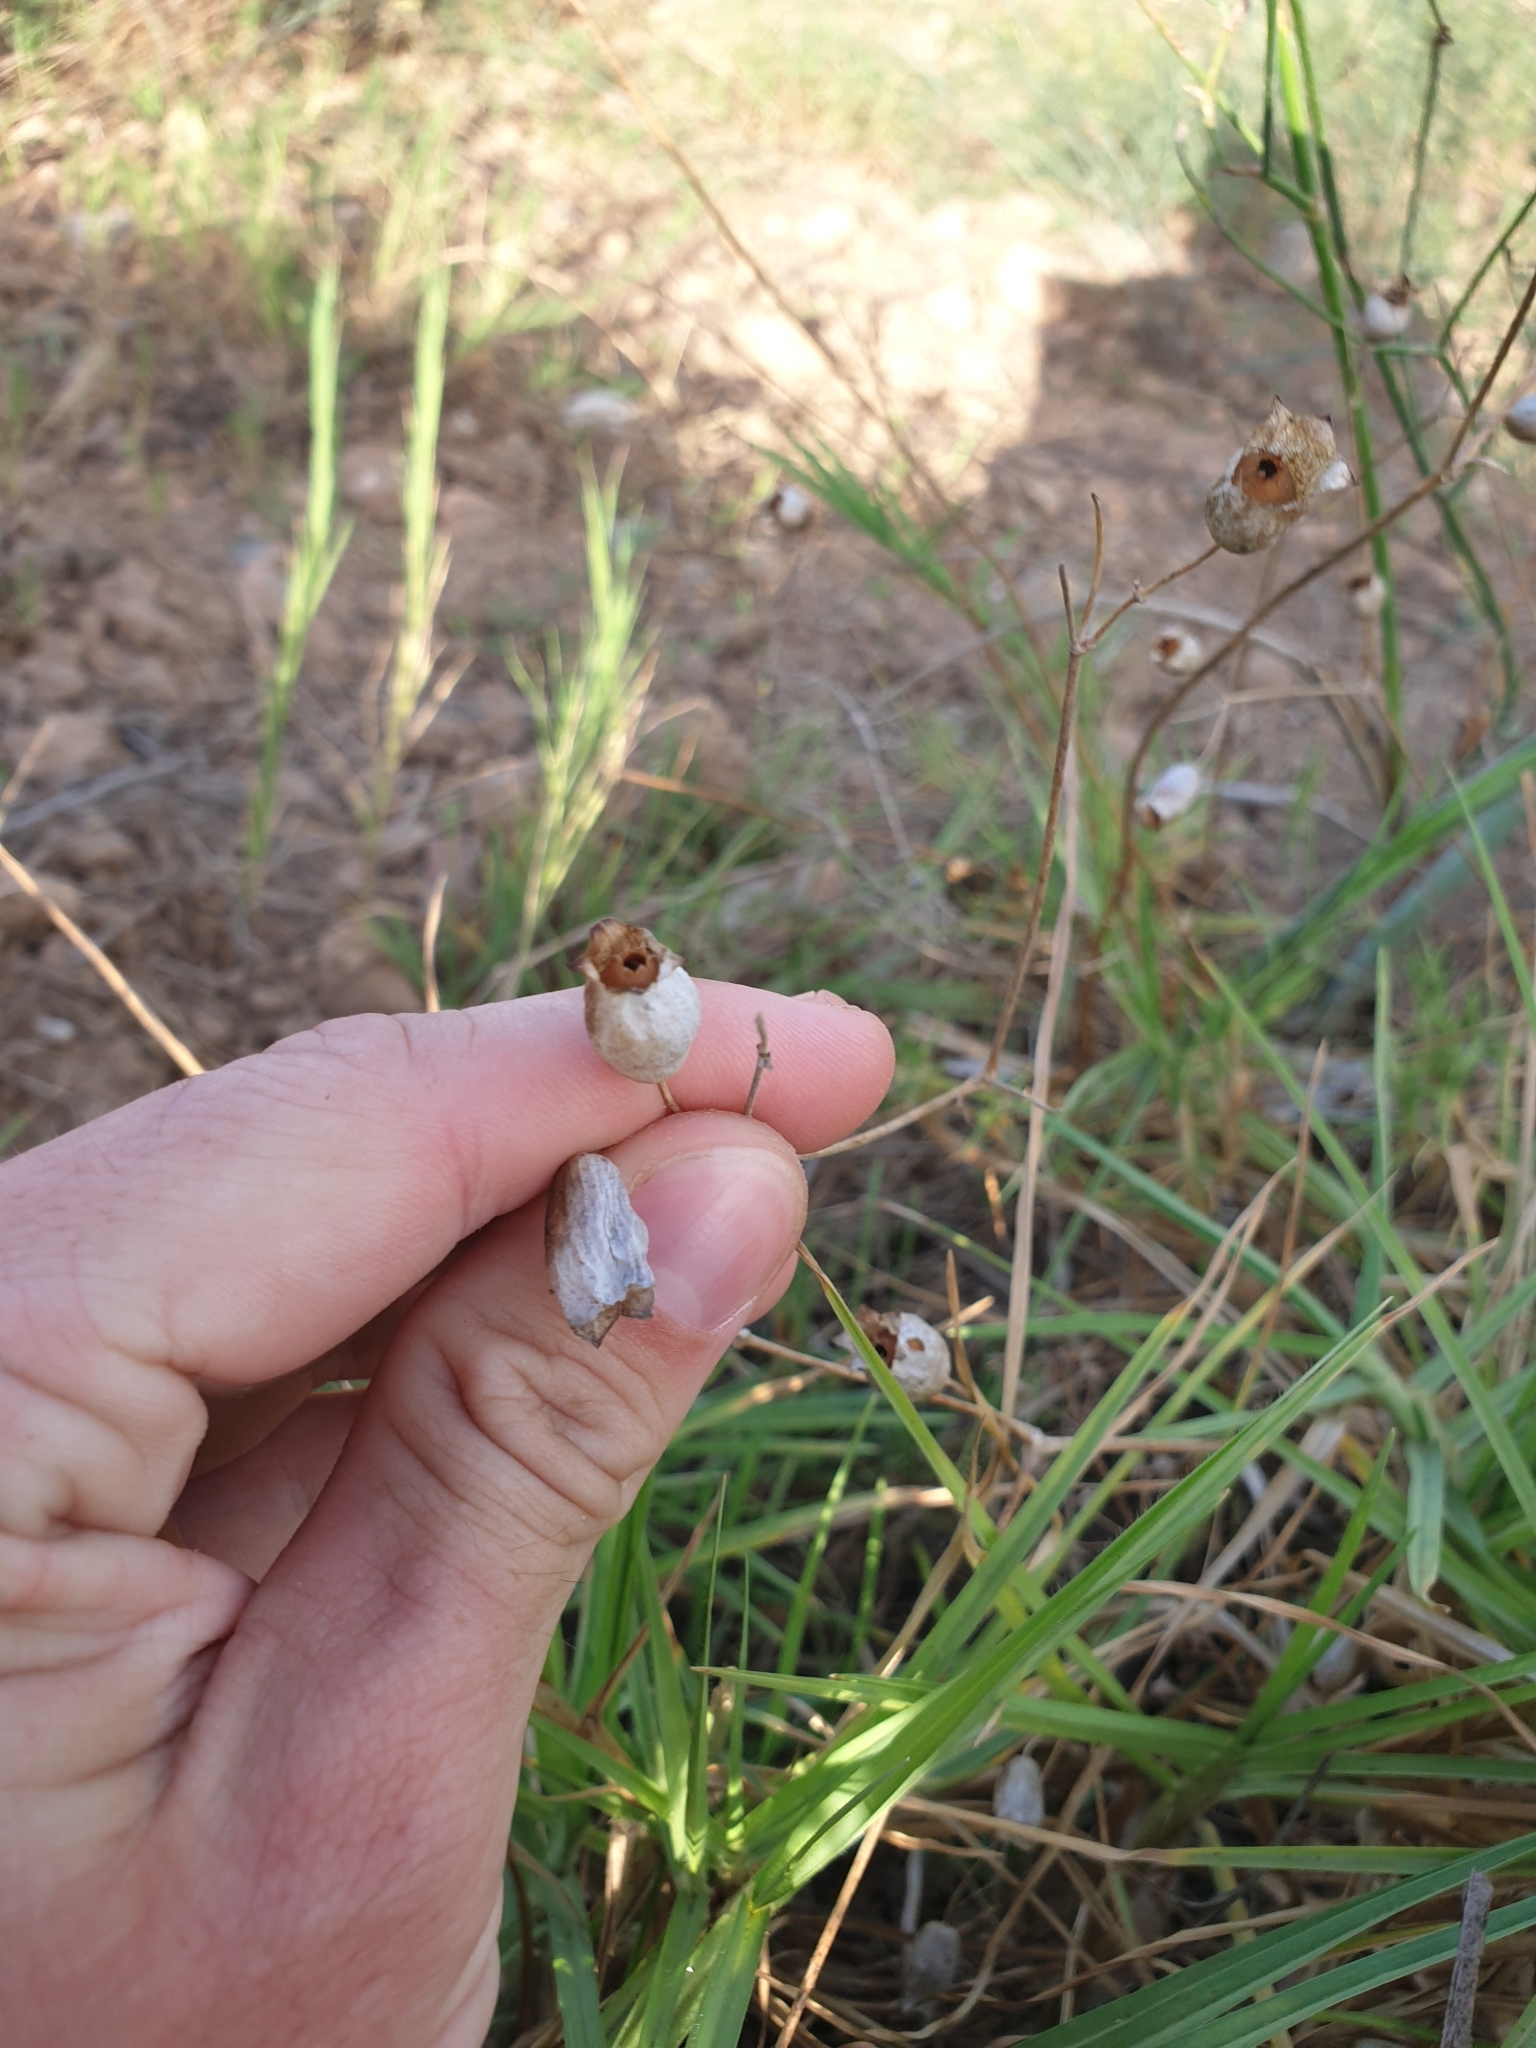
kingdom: Plantae
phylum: Tracheophyta
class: Magnoliopsida
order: Caryophyllales
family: Caryophyllaceae
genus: Silene
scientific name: Silene vulgaris
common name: Bladder campion
